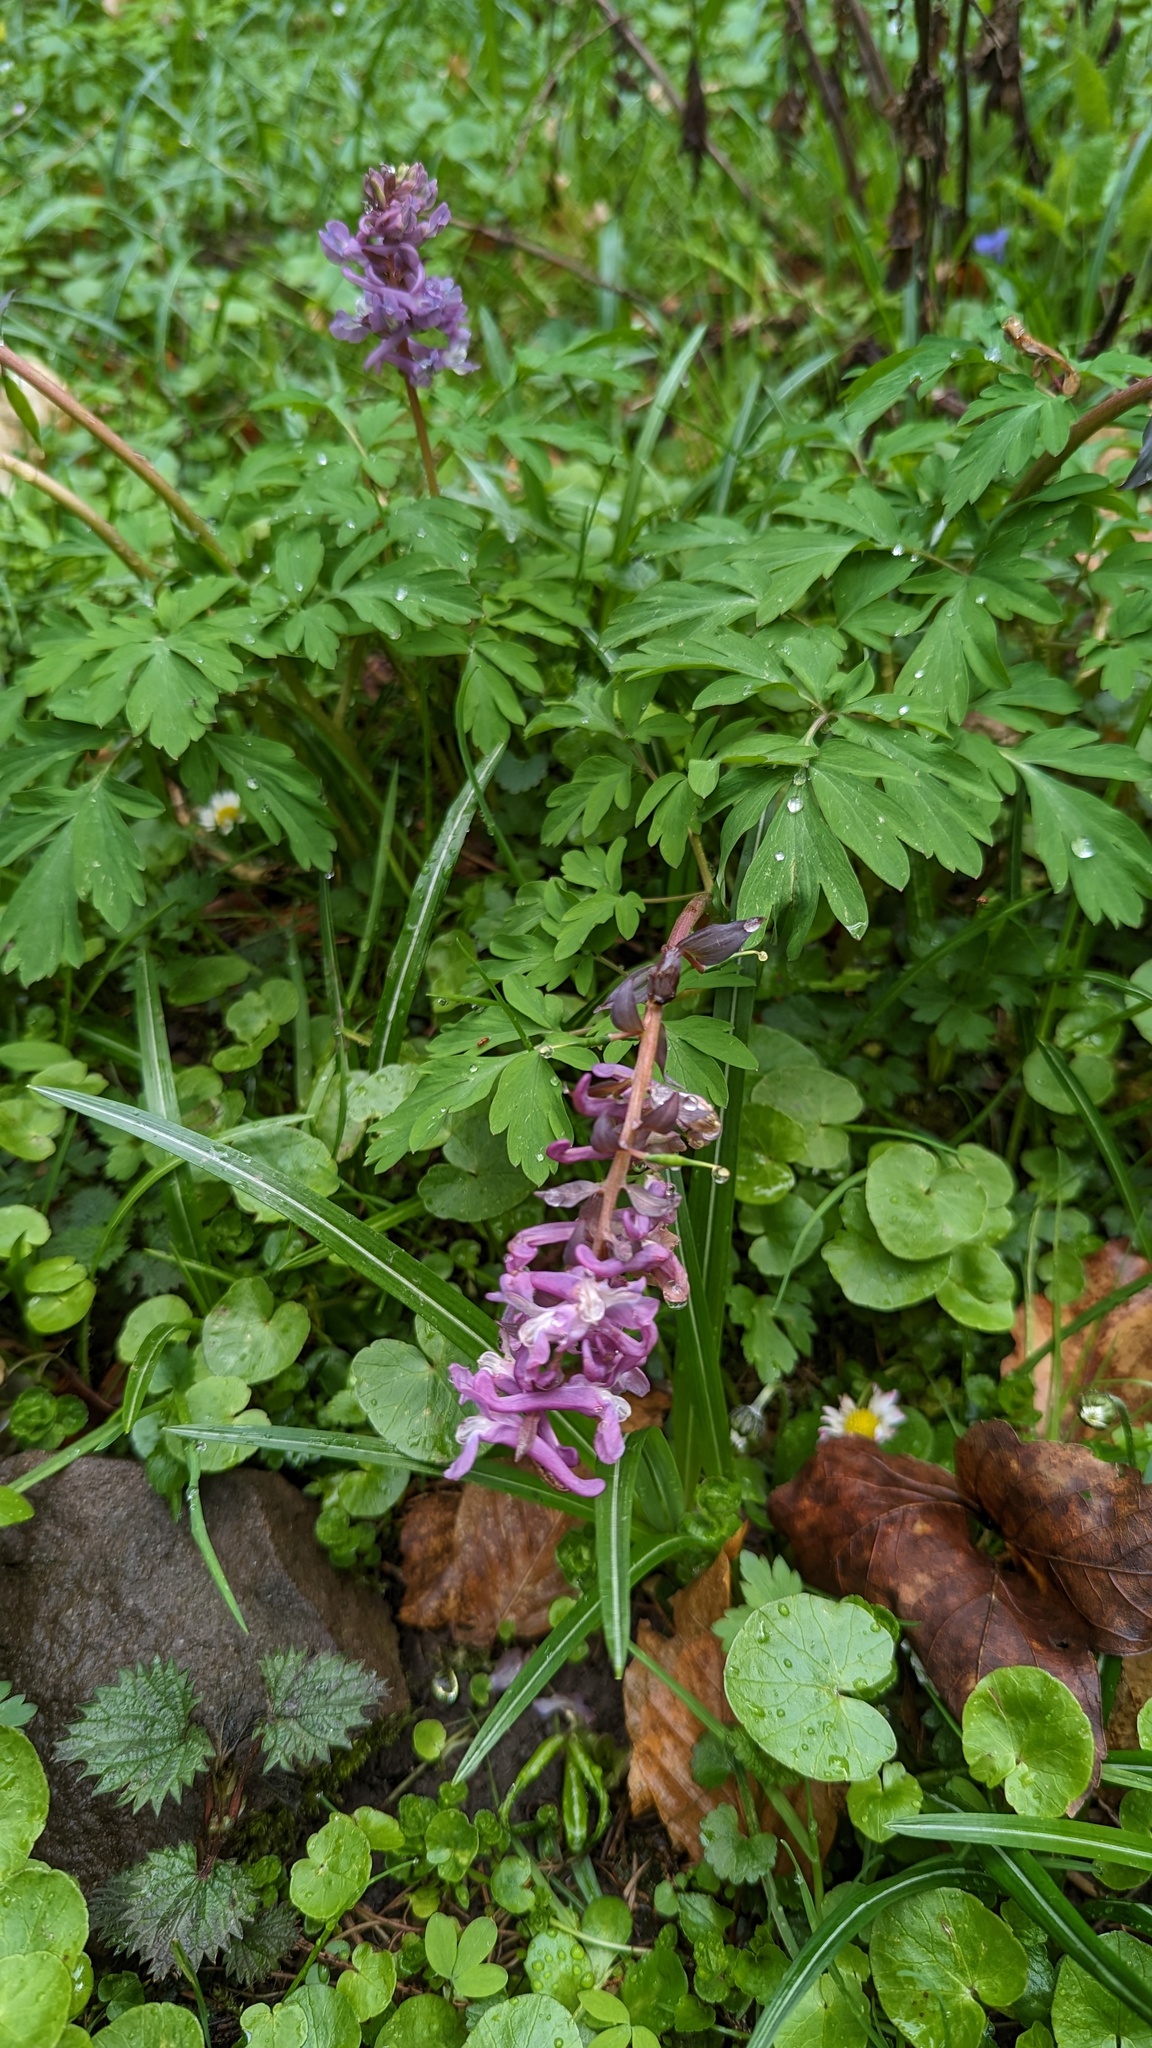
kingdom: Plantae
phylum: Tracheophyta
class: Magnoliopsida
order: Ranunculales
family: Papaveraceae
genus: Corydalis
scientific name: Corydalis cava
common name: Hollowroot
